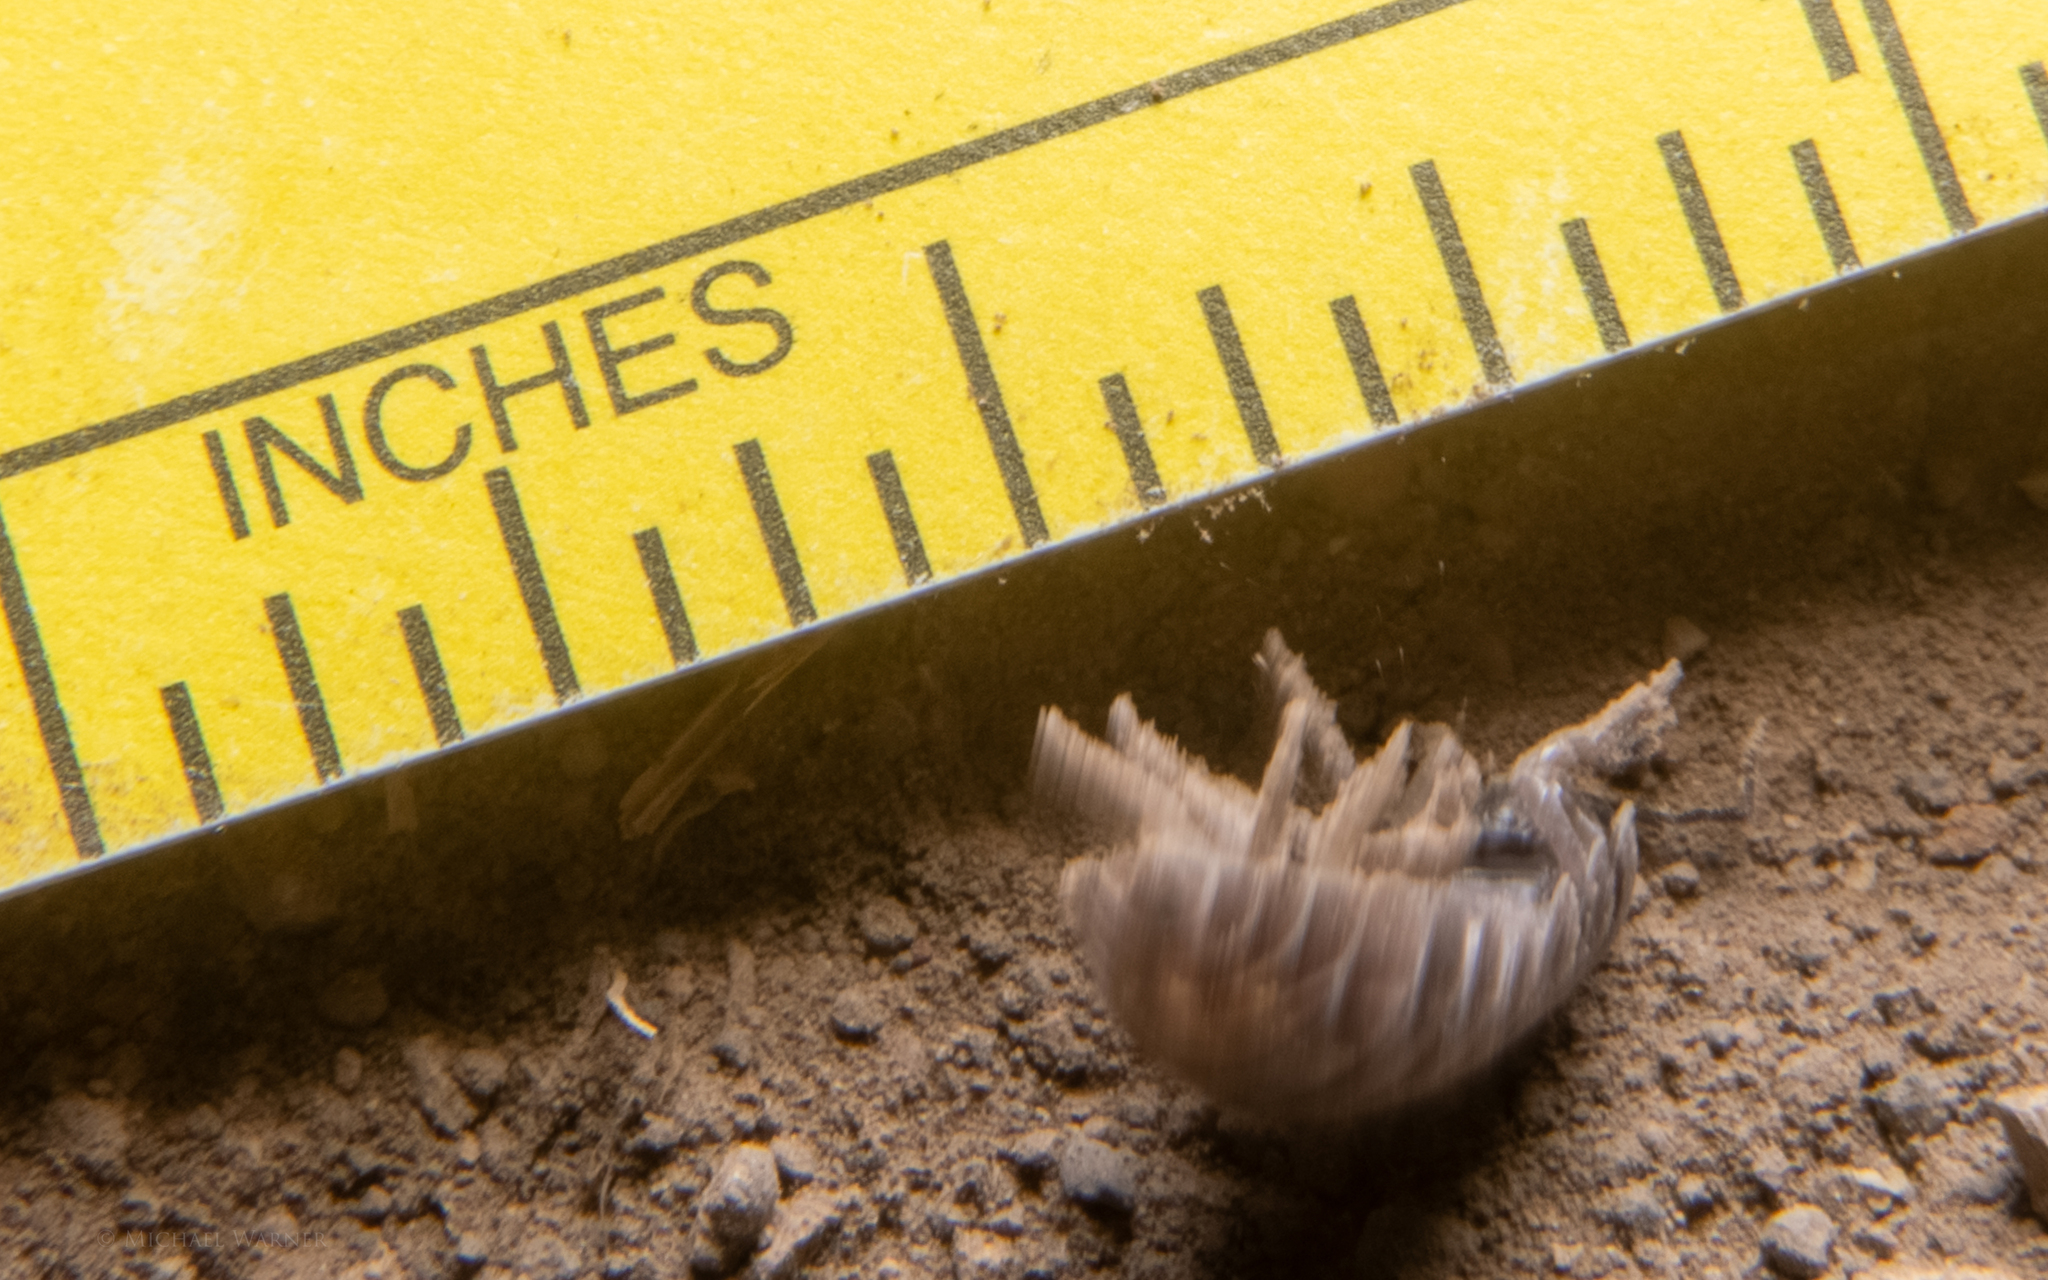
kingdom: Animalia
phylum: Arthropoda
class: Malacostraca
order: Isopoda
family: Armadillidiidae
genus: Armadillidium
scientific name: Armadillidium vulgare
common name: Common pill woodlouse
